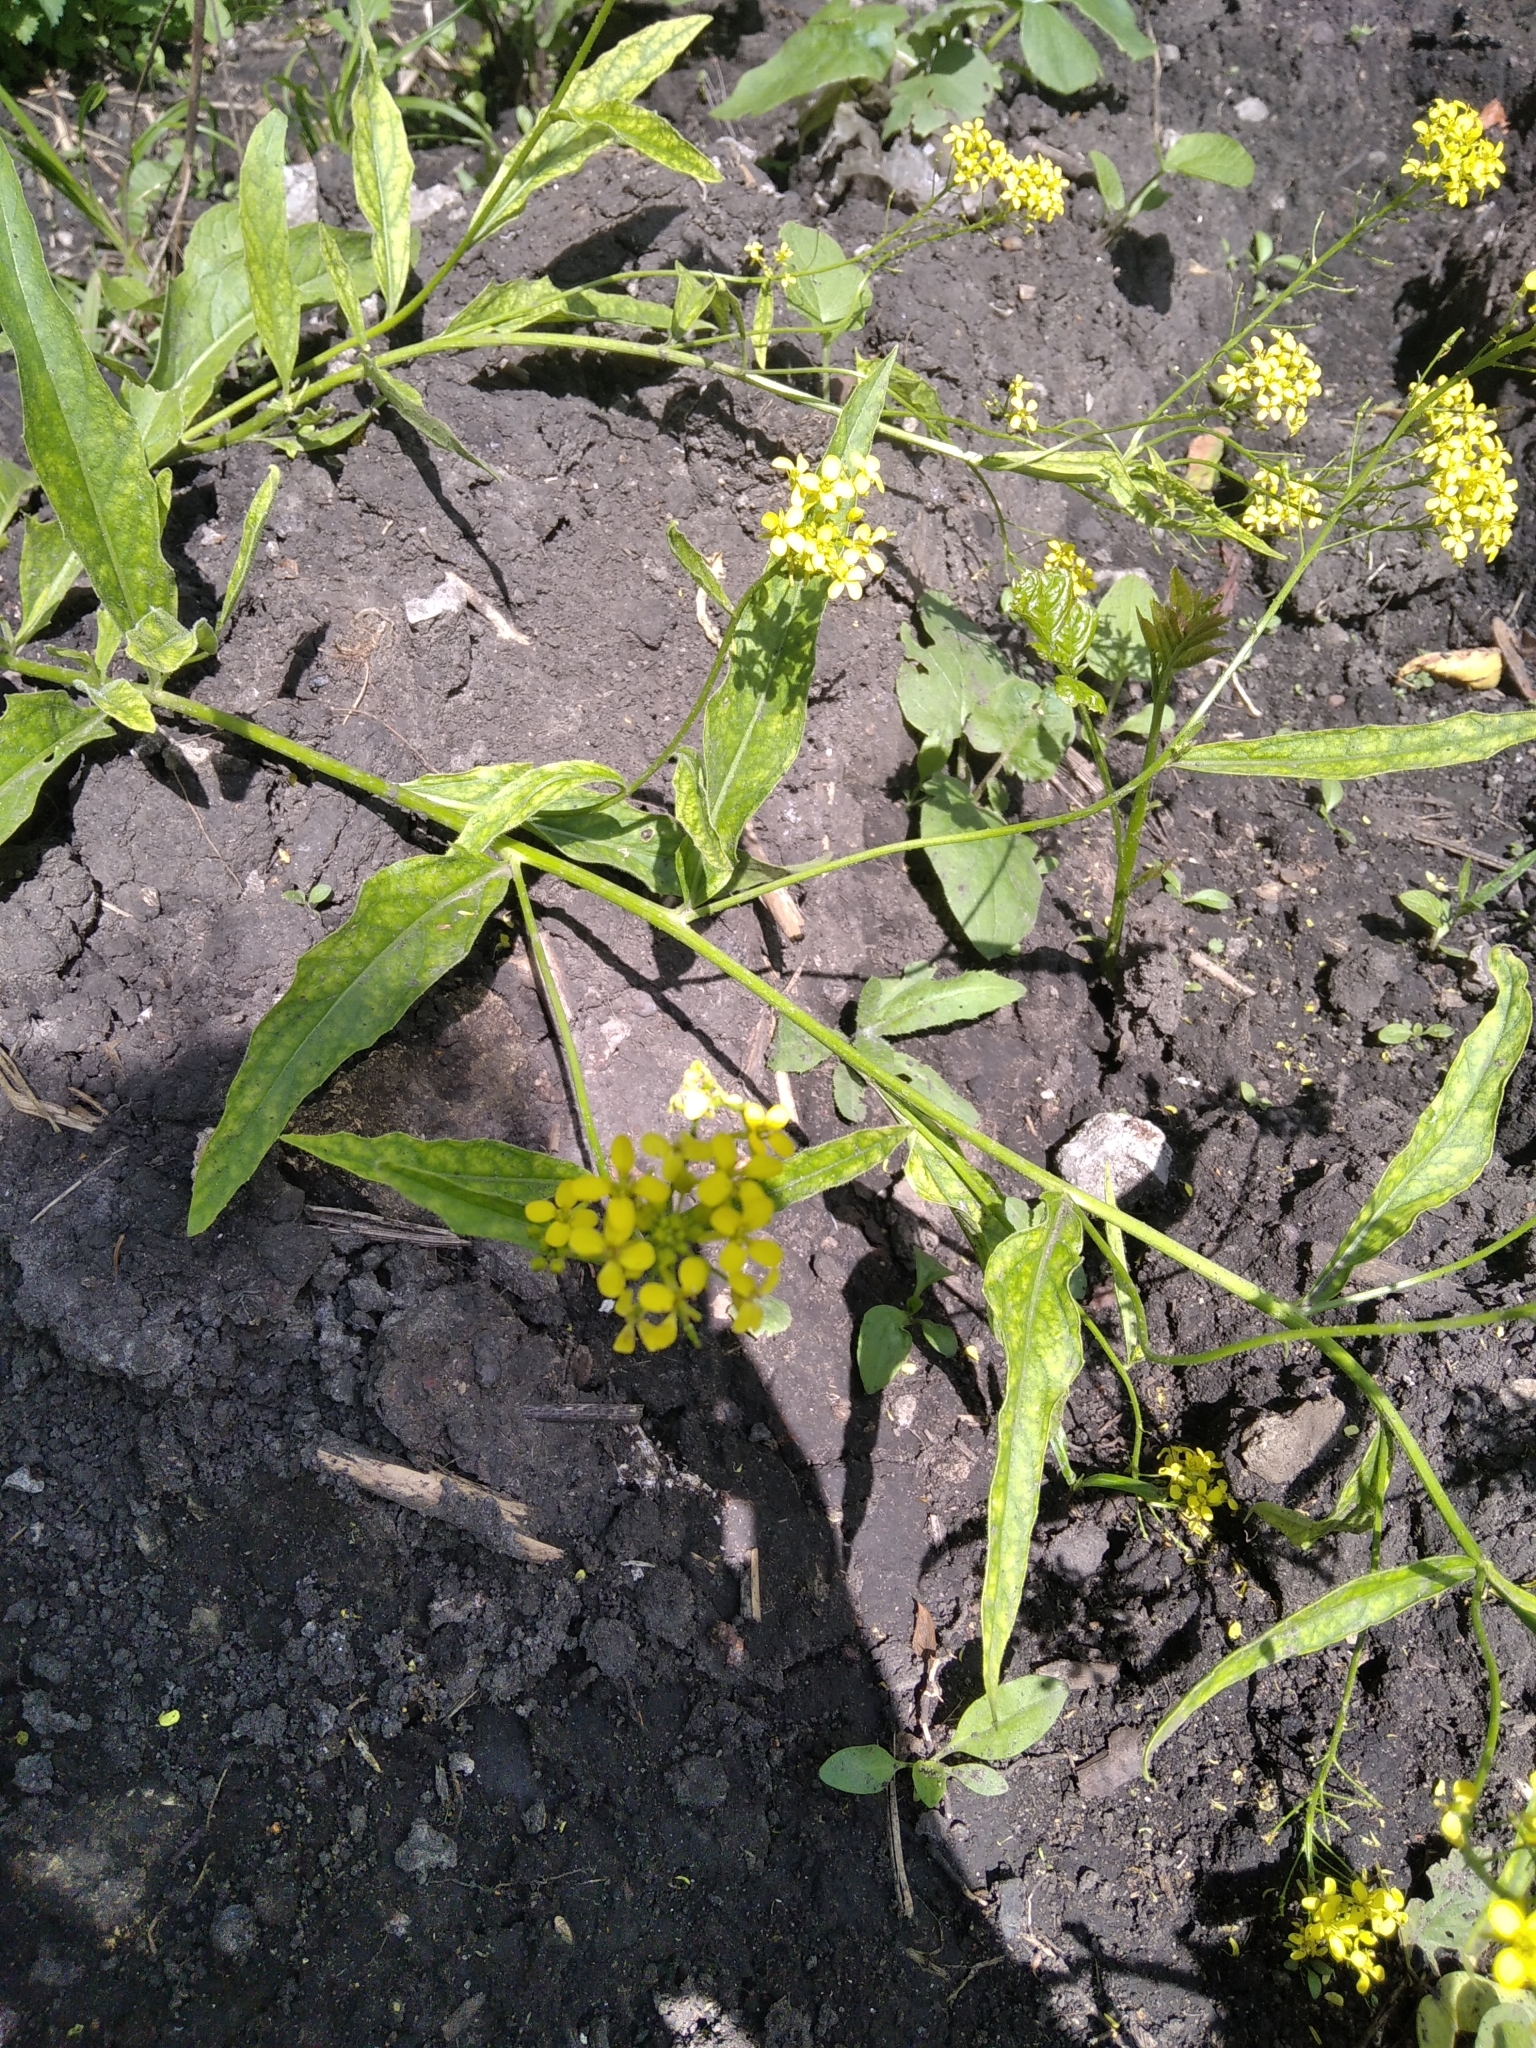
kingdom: Plantae
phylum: Tracheophyta
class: Magnoliopsida
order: Brassicales
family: Brassicaceae
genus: Erysimum
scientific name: Erysimum cheiranthoides
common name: Treacle mustard
